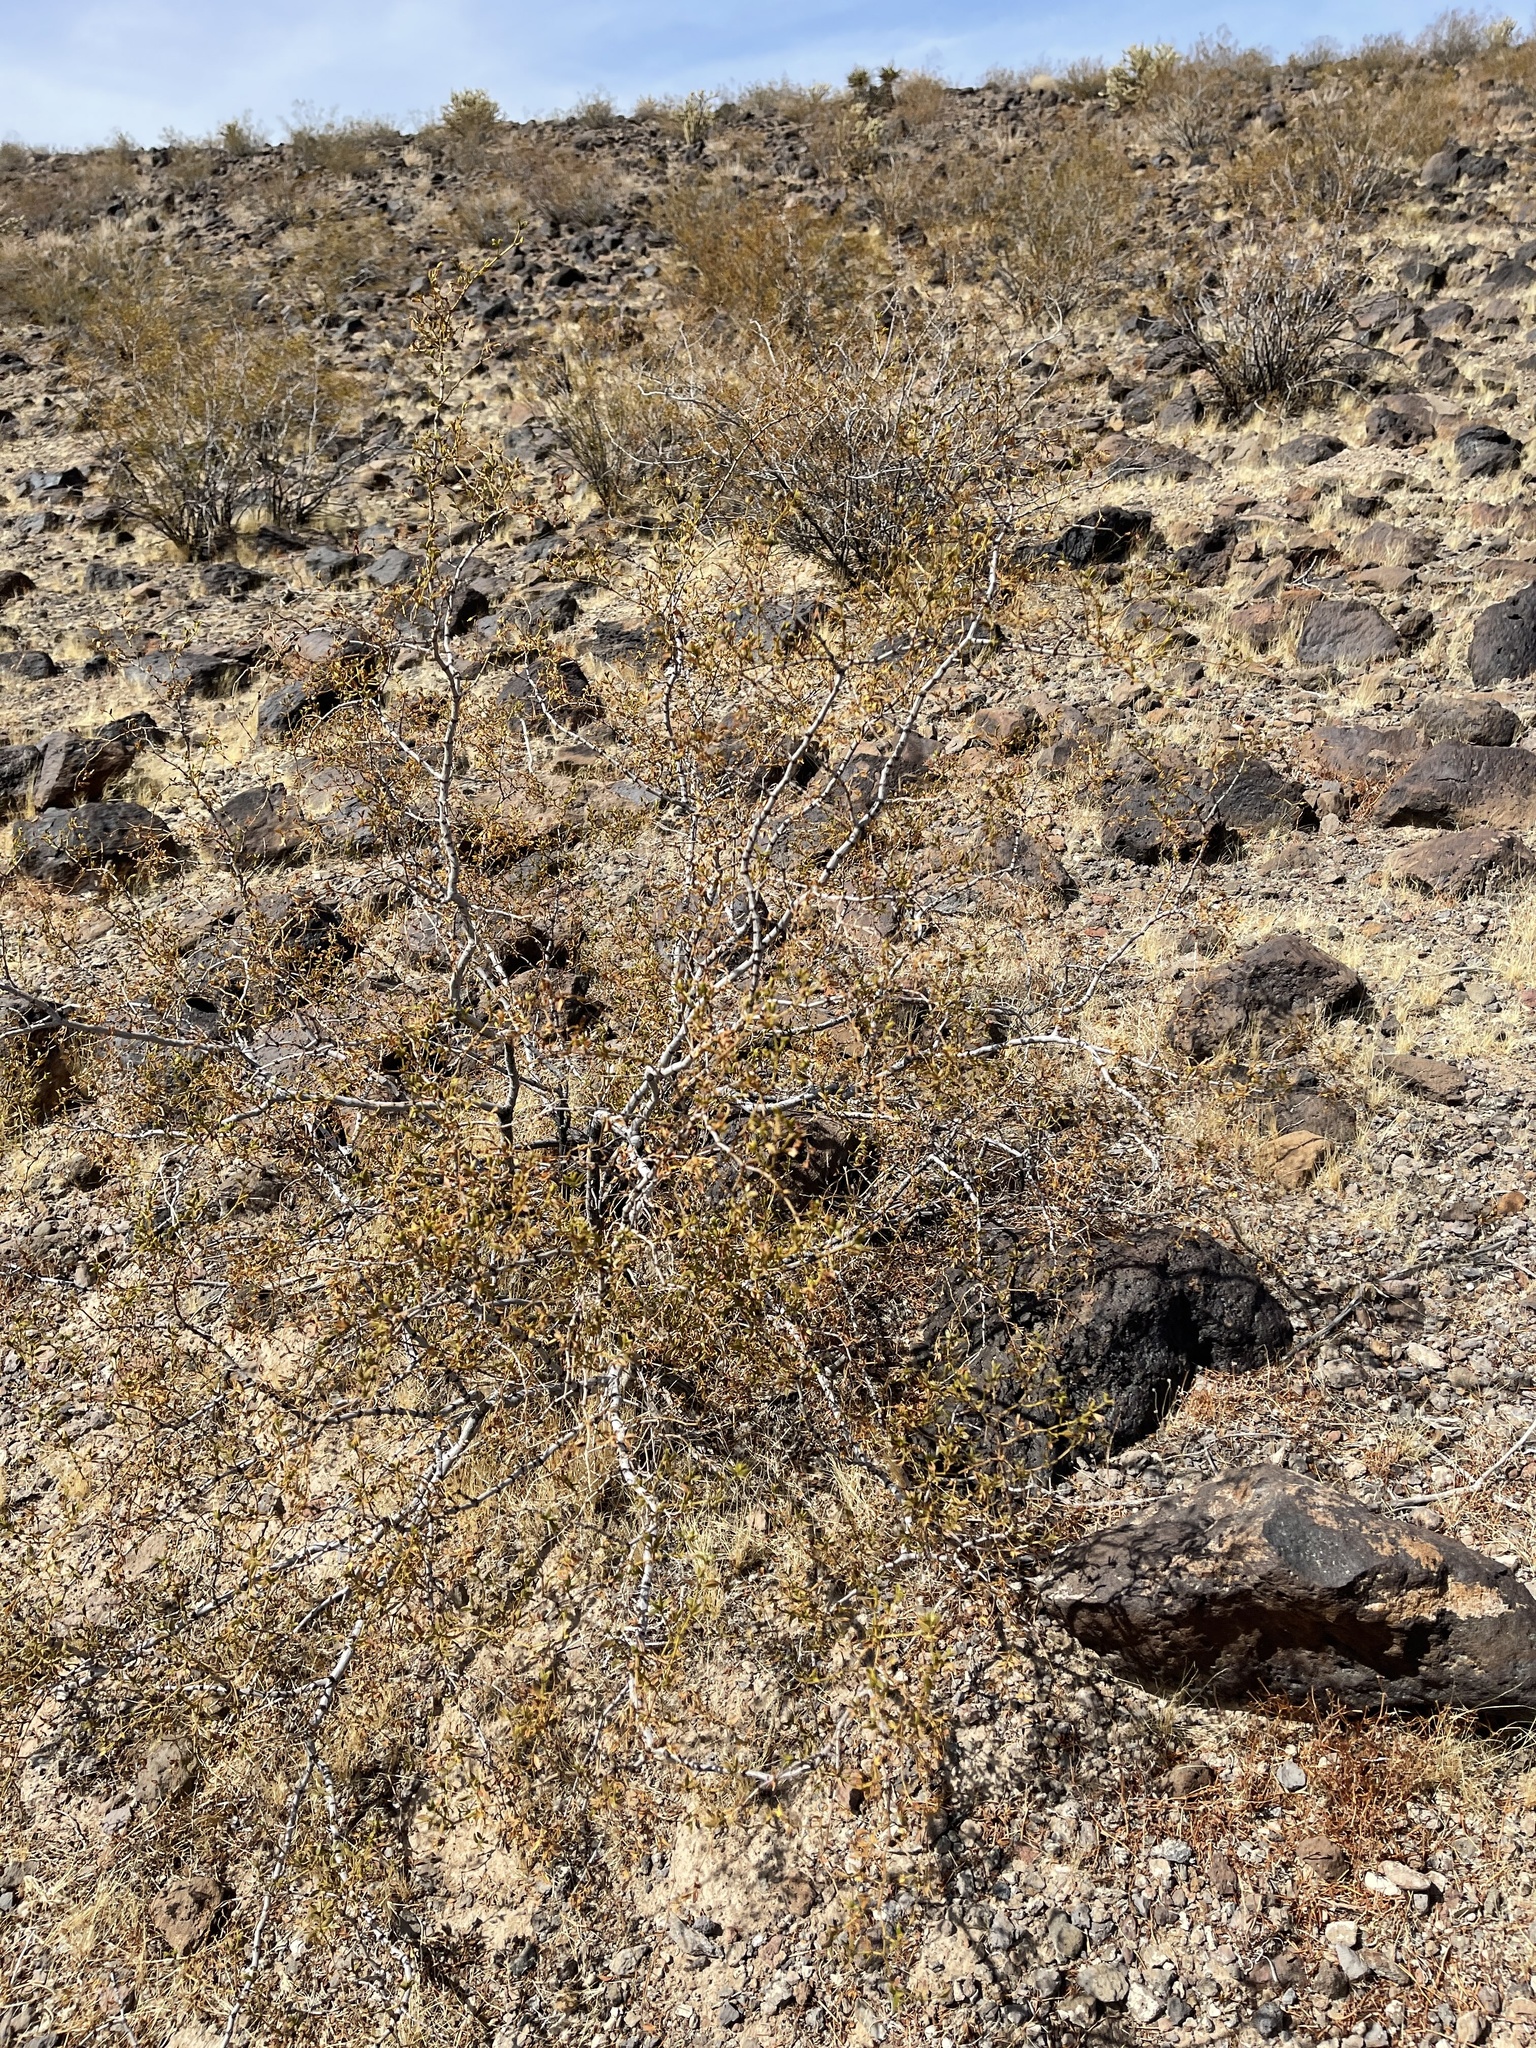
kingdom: Plantae
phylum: Tracheophyta
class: Magnoliopsida
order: Zygophyllales
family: Zygophyllaceae
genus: Larrea
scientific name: Larrea tridentata
